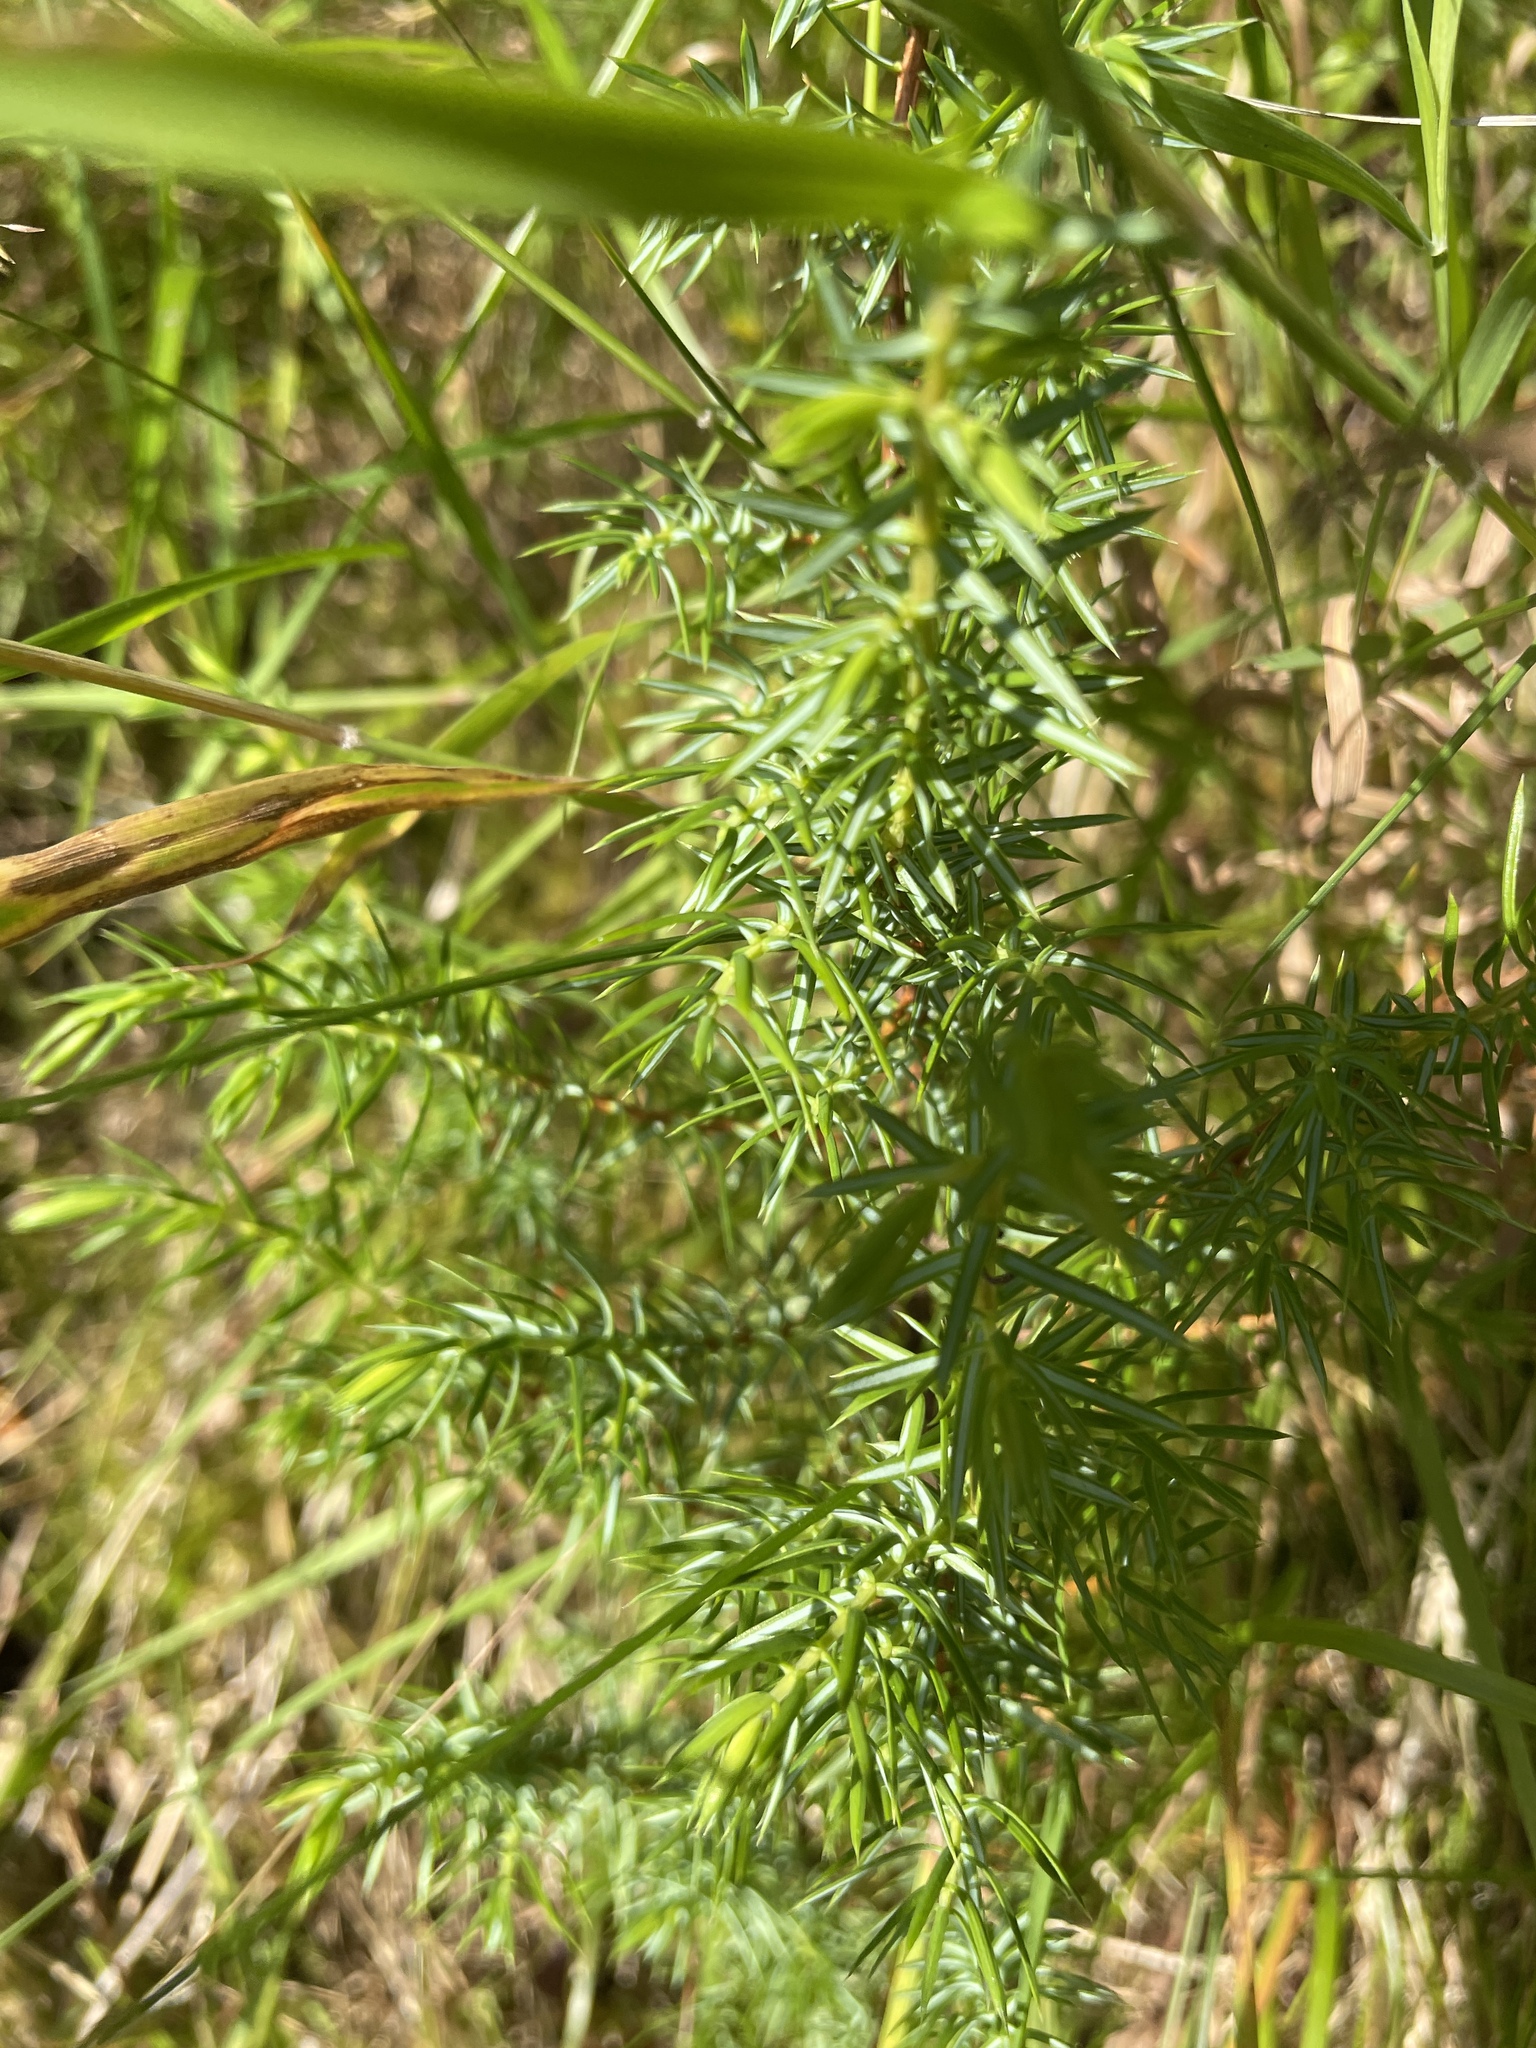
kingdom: Plantae
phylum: Tracheophyta
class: Pinopsida
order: Pinales
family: Cupressaceae
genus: Juniperus
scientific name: Juniperus communis
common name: Common juniper
